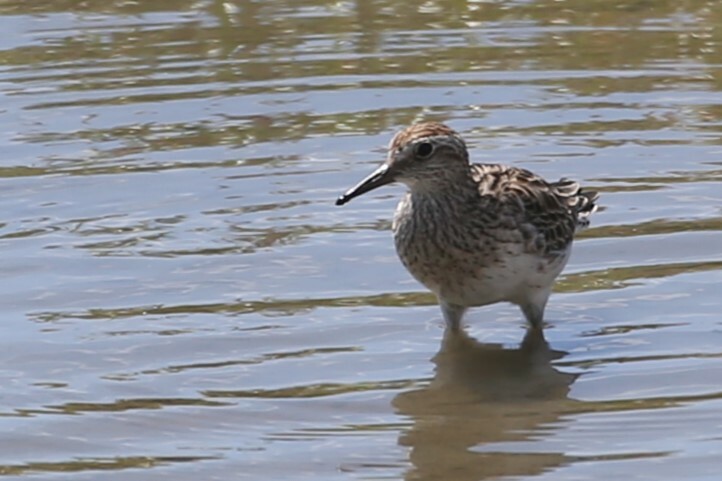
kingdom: Animalia
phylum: Chordata
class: Aves
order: Charadriiformes
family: Scolopacidae
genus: Calidris
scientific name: Calidris acuminata
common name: Sharp-tailed sandpiper
